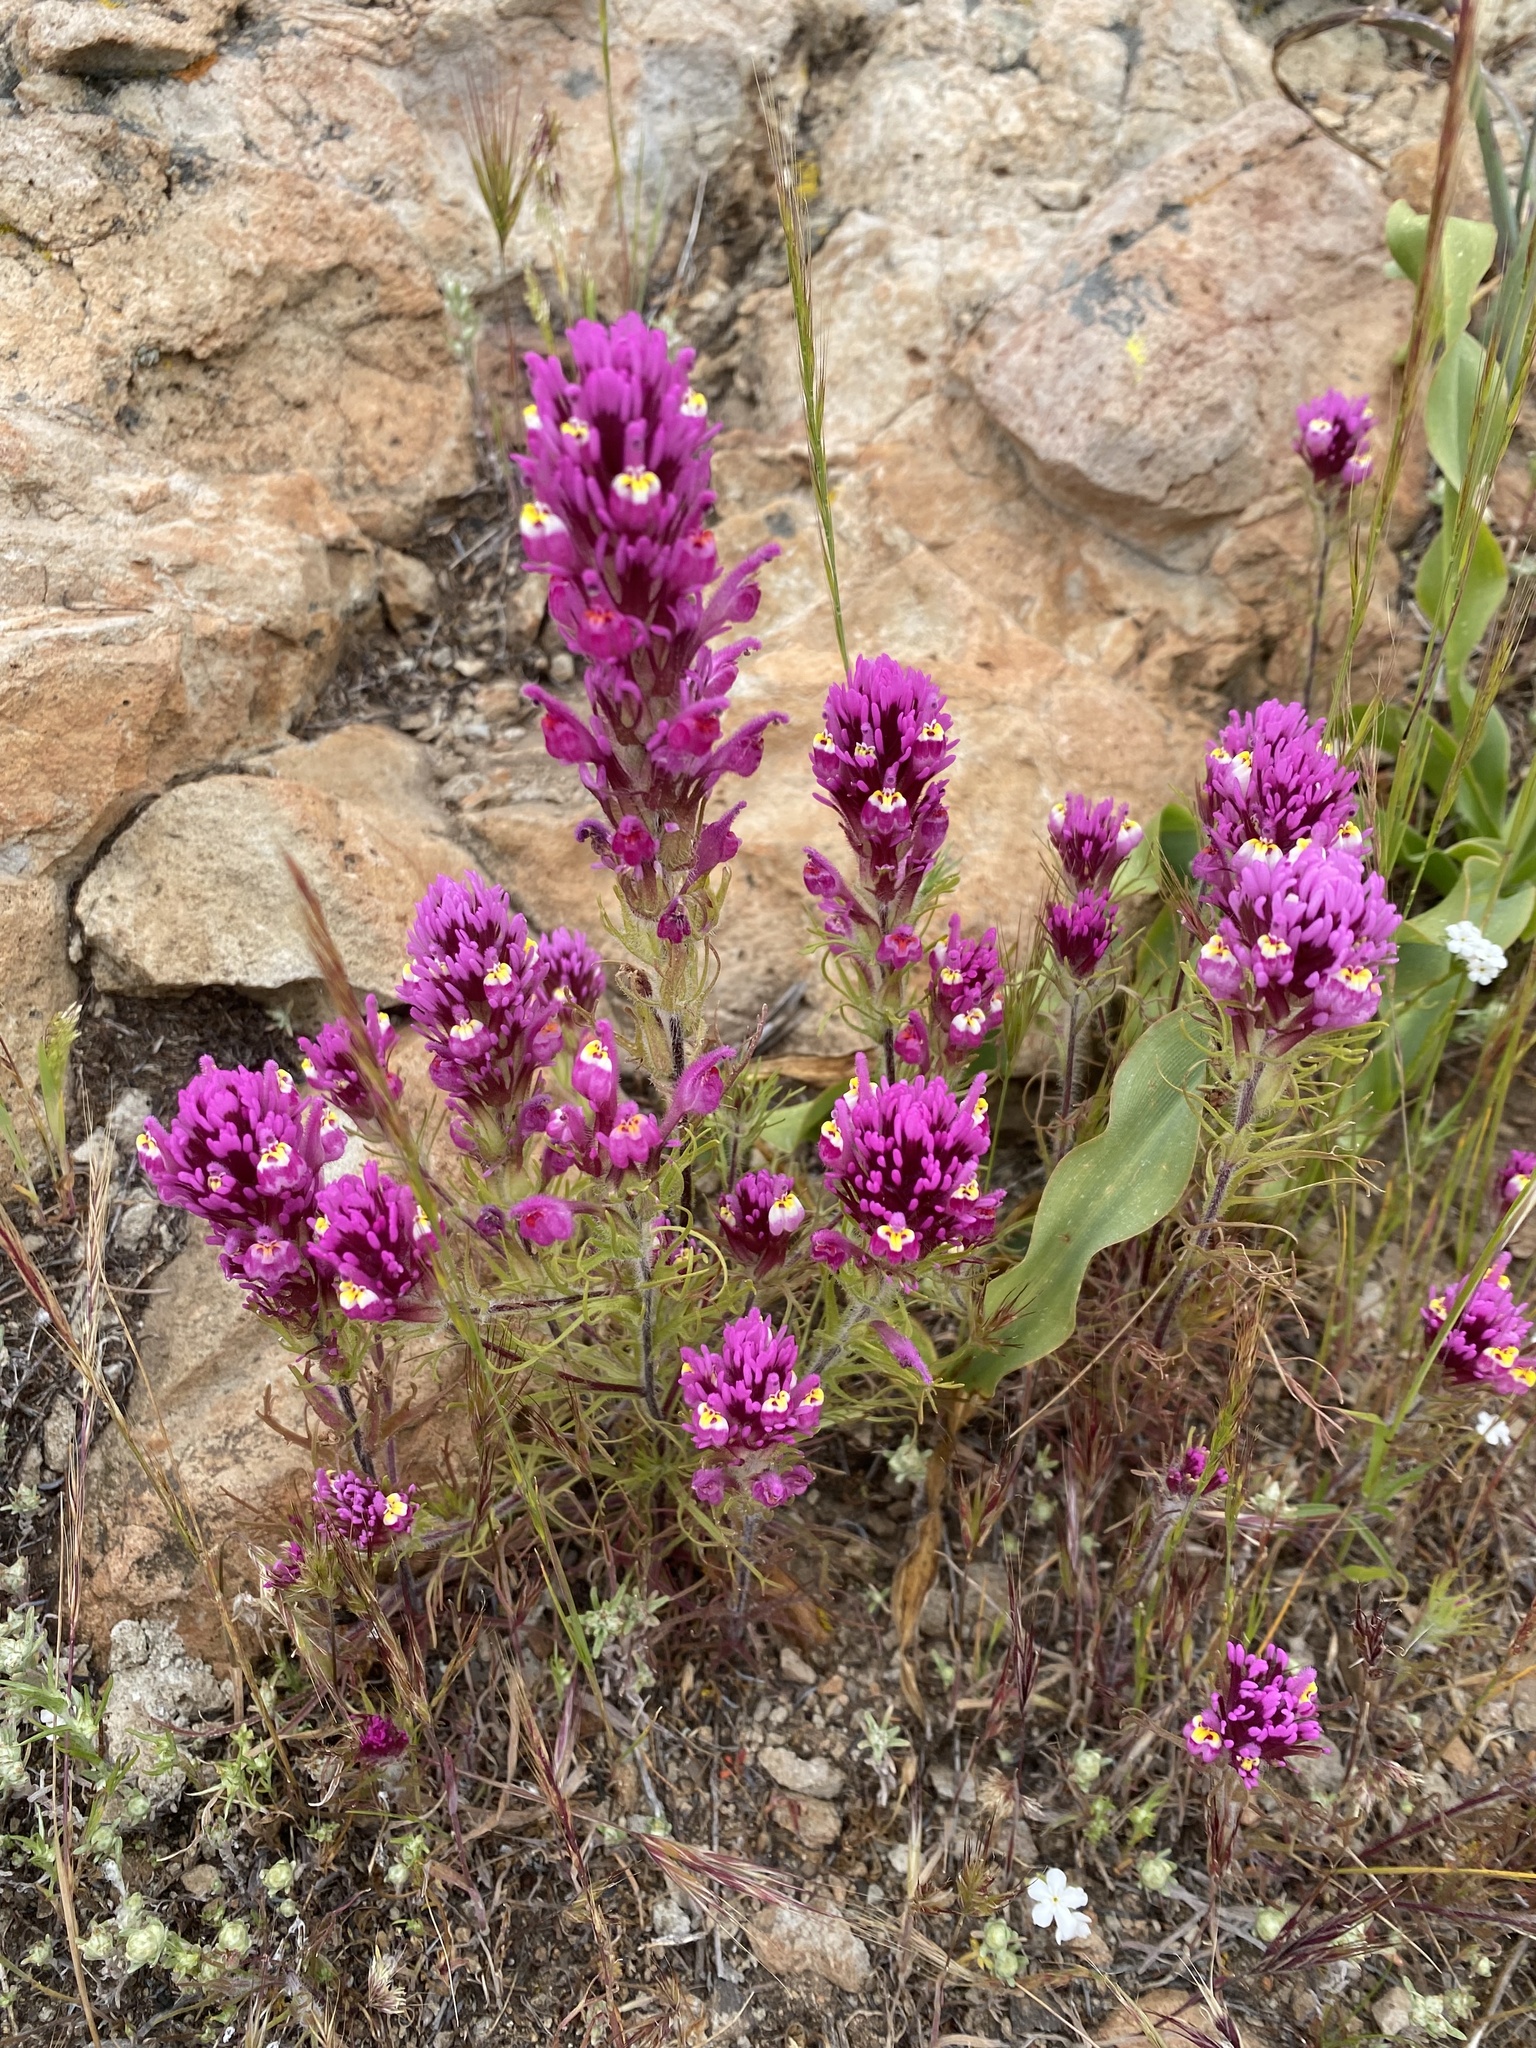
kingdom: Plantae
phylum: Tracheophyta
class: Magnoliopsida
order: Lamiales
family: Orobanchaceae
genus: Castilleja
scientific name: Castilleja exserta
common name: Purple owl-clover
